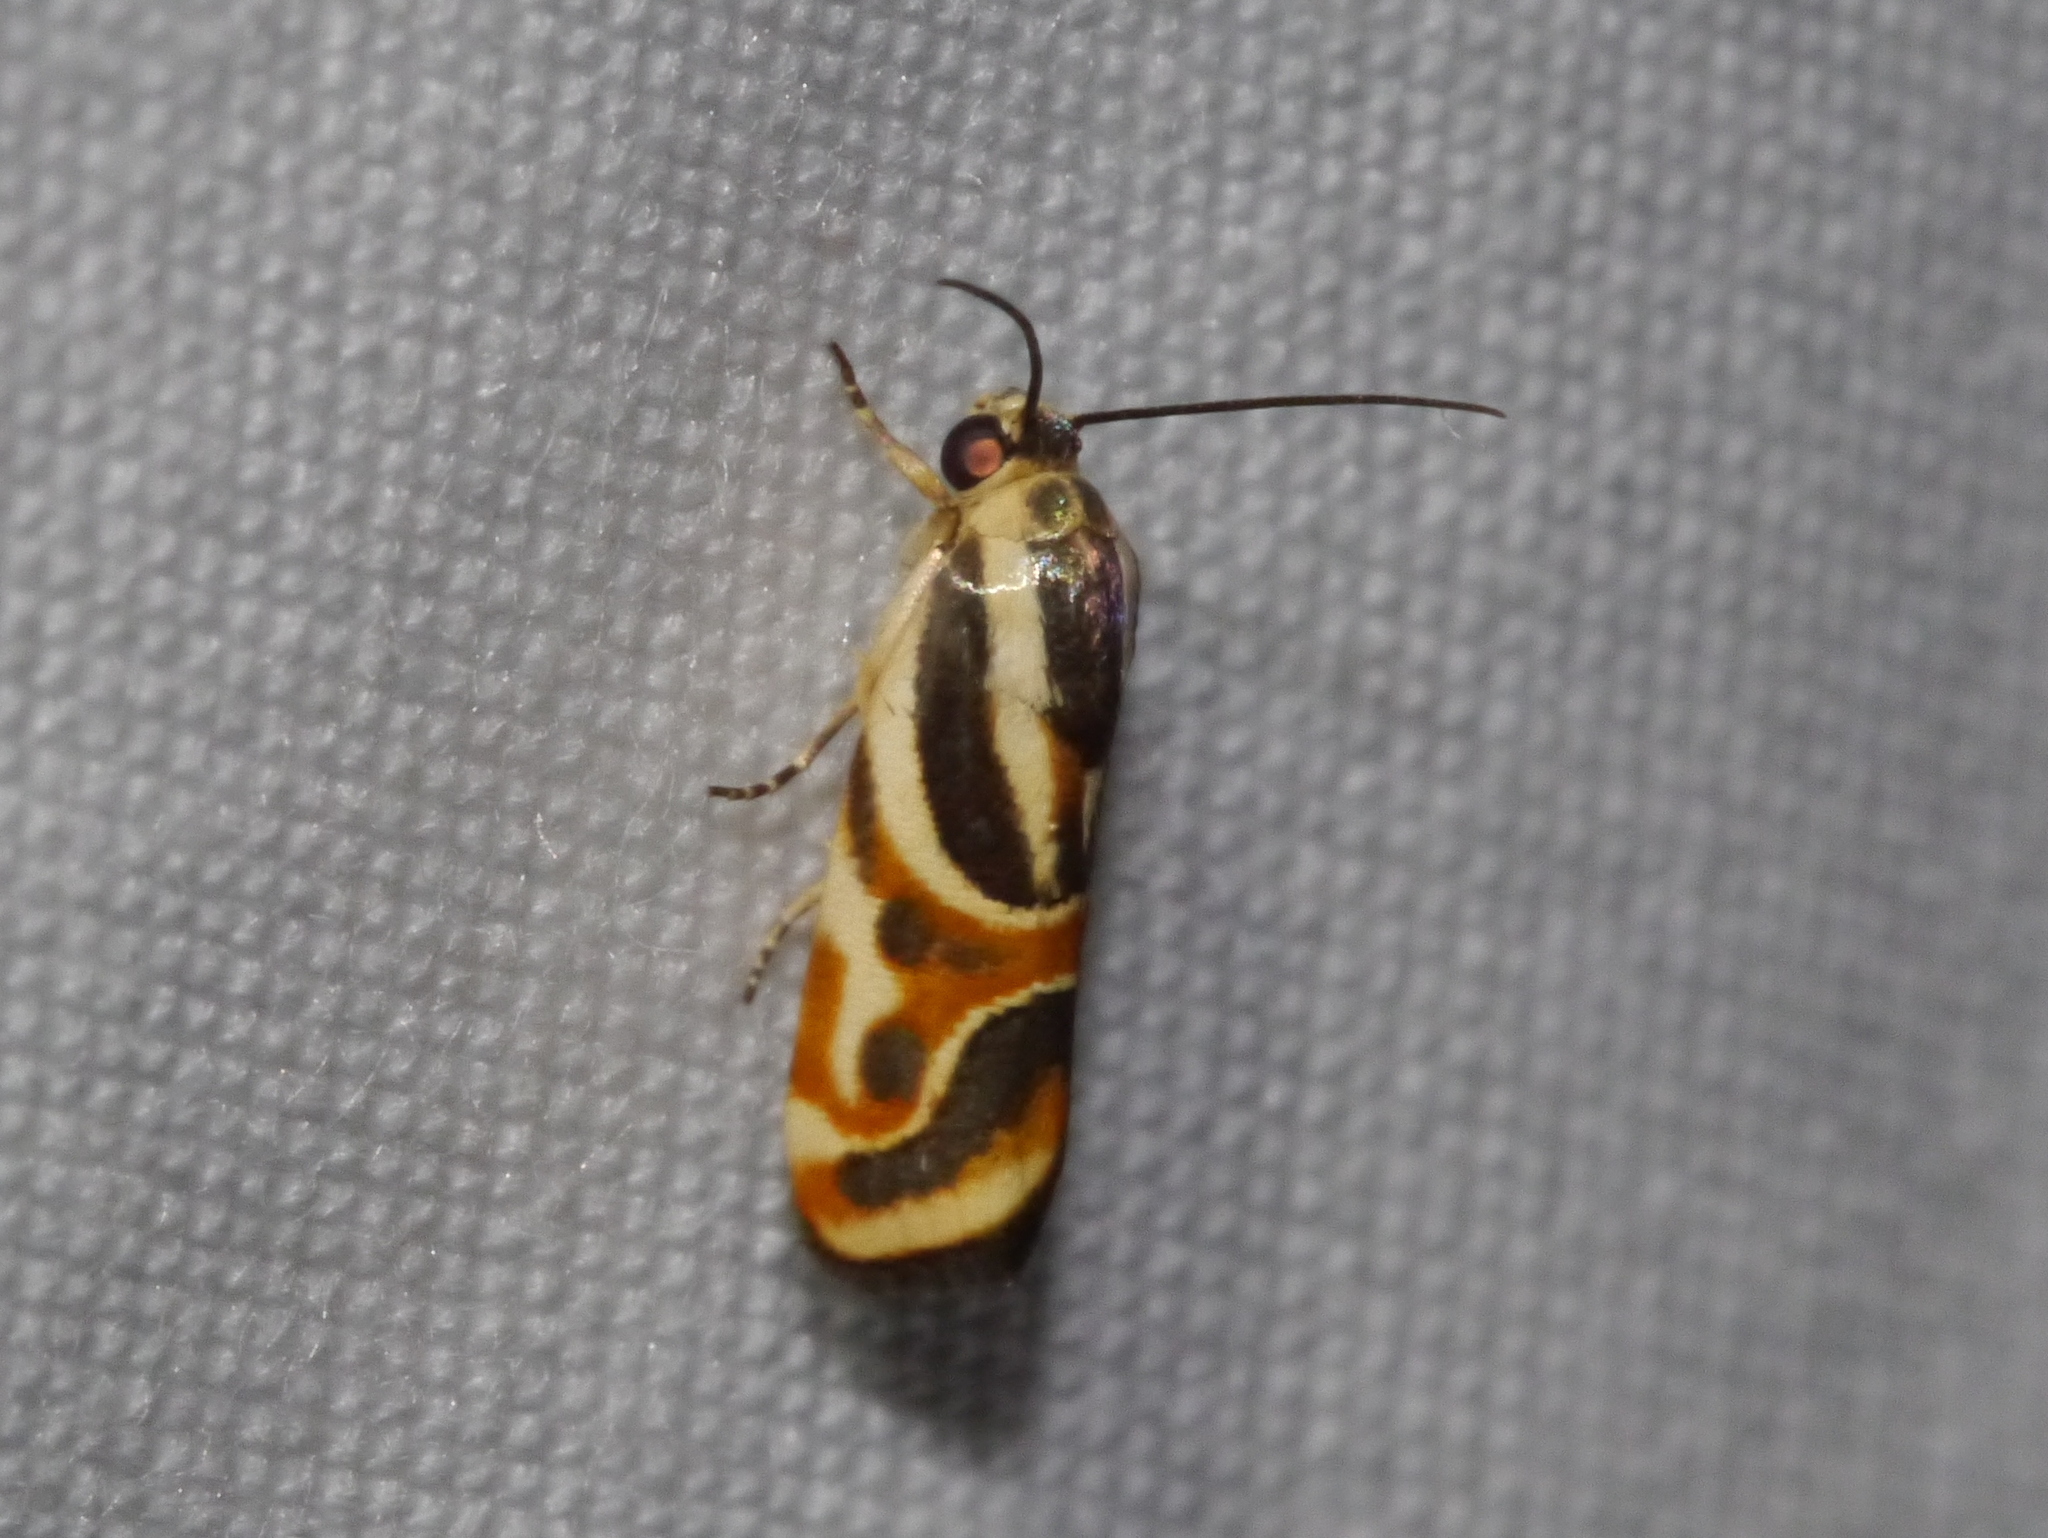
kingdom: Animalia
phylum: Arthropoda
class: Insecta
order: Lepidoptera
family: Noctuidae
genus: Spragueia
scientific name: Spragueia magnifica
